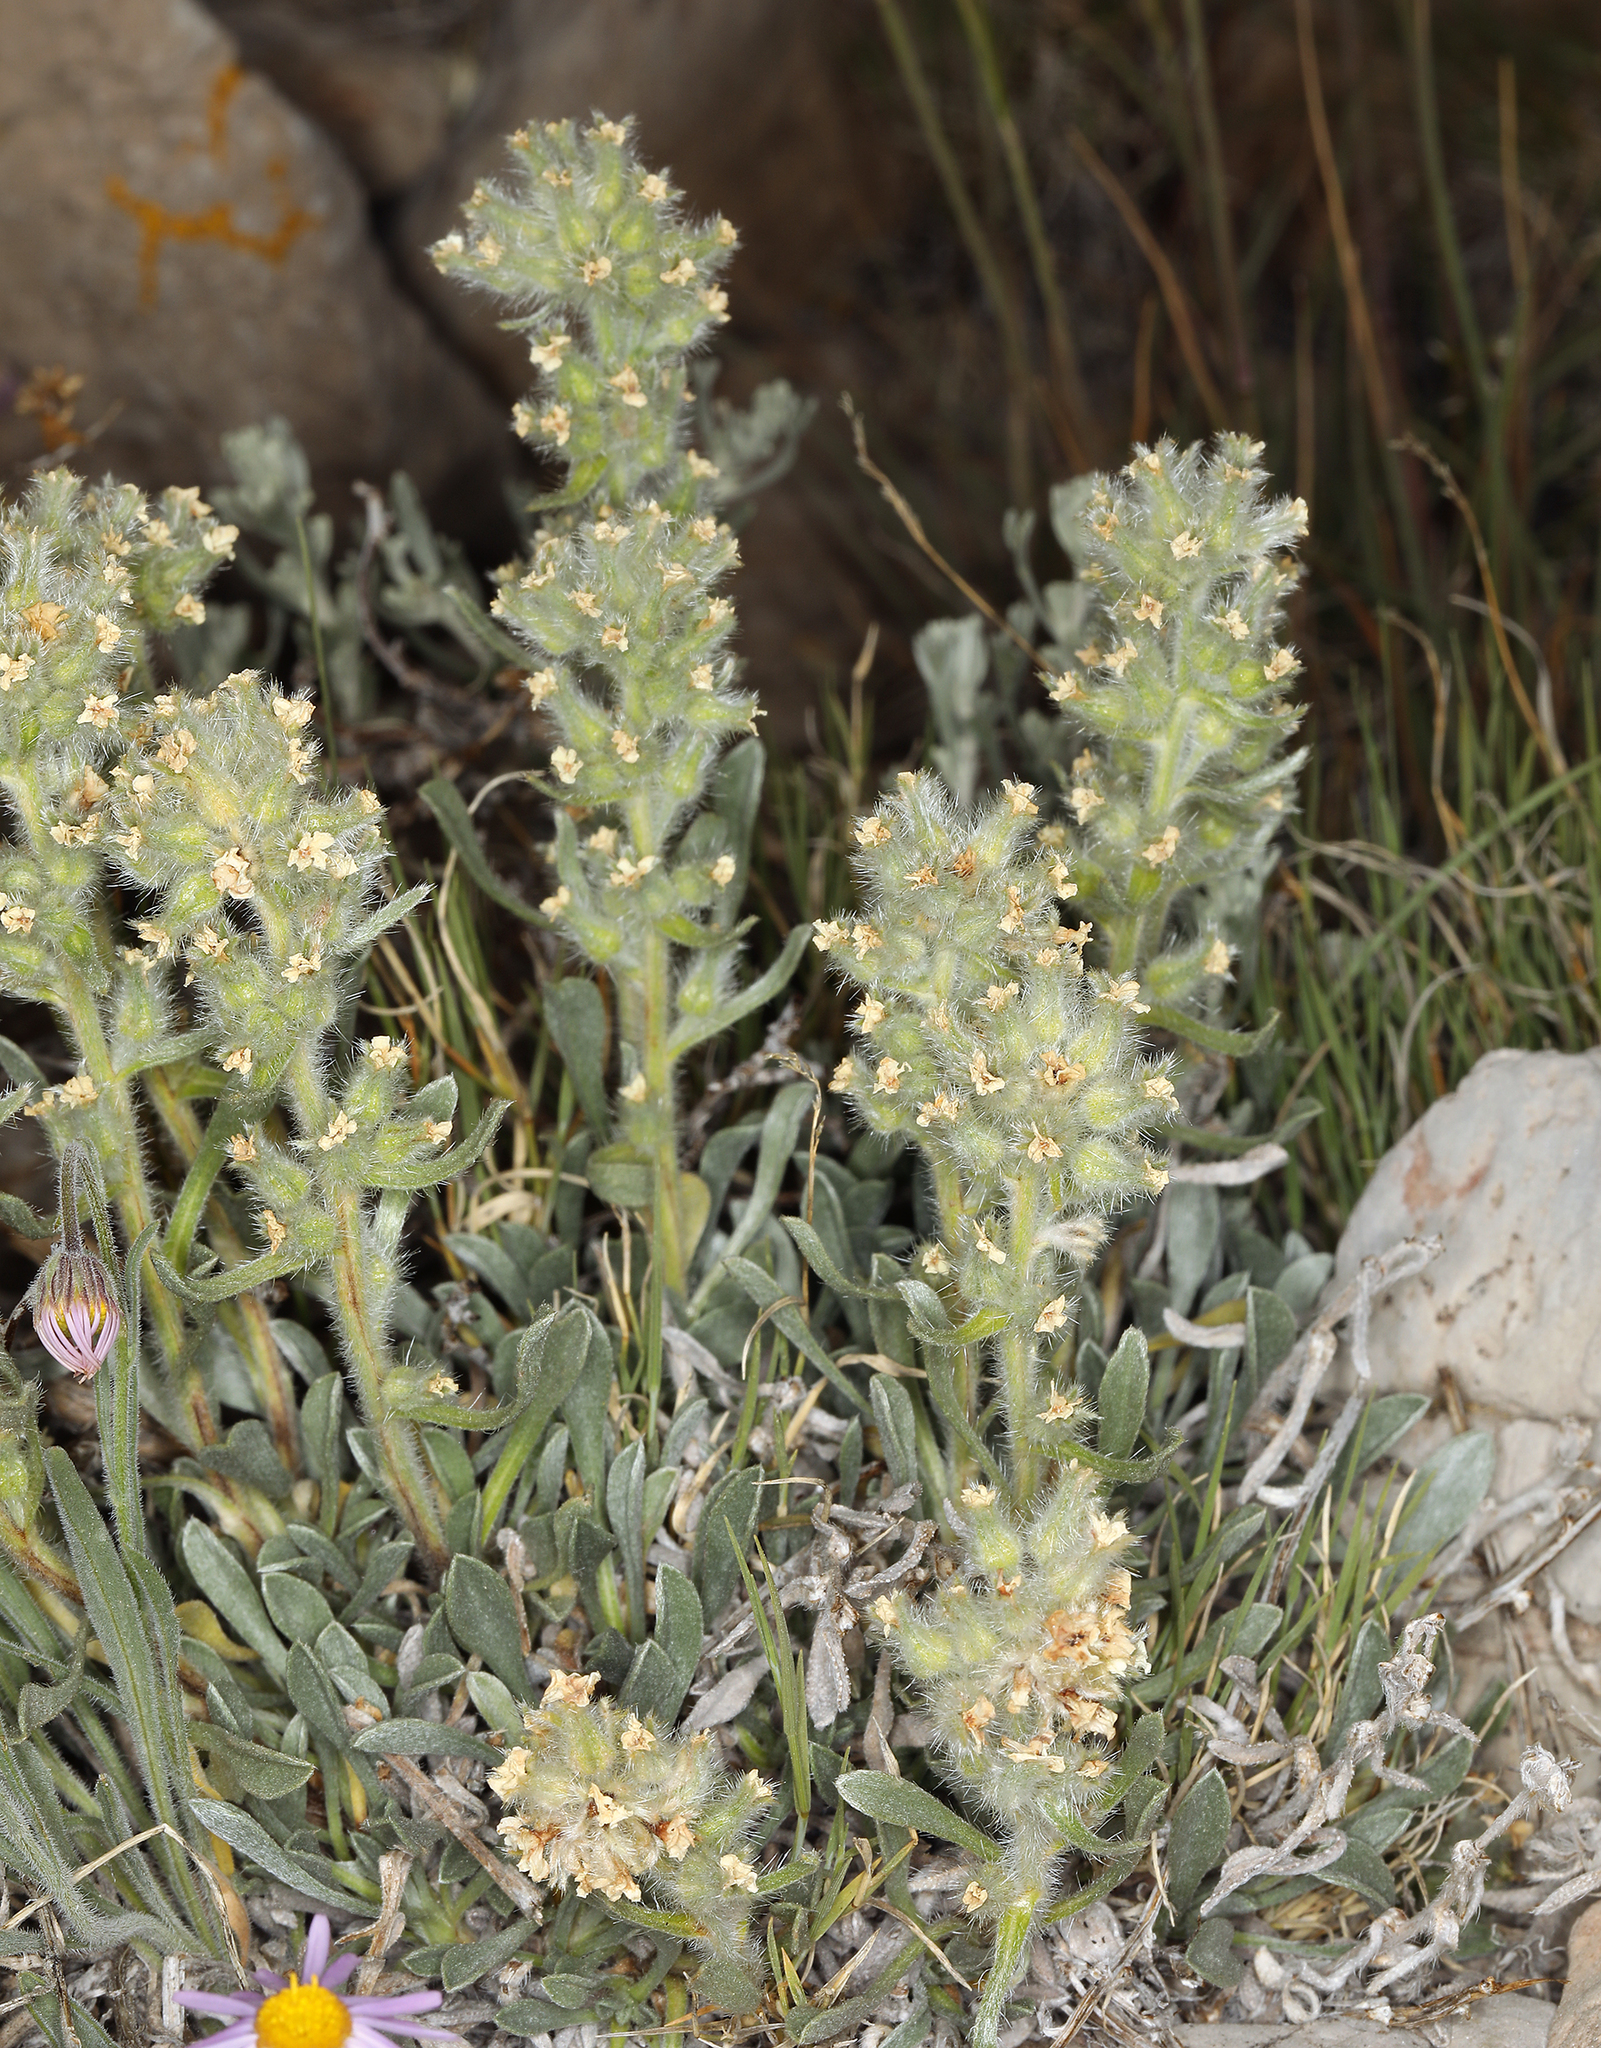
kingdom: Plantae
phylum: Tracheophyta
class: Magnoliopsida
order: Boraginales
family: Boraginaceae
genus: Oreocarya
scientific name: Oreocarya humilis
